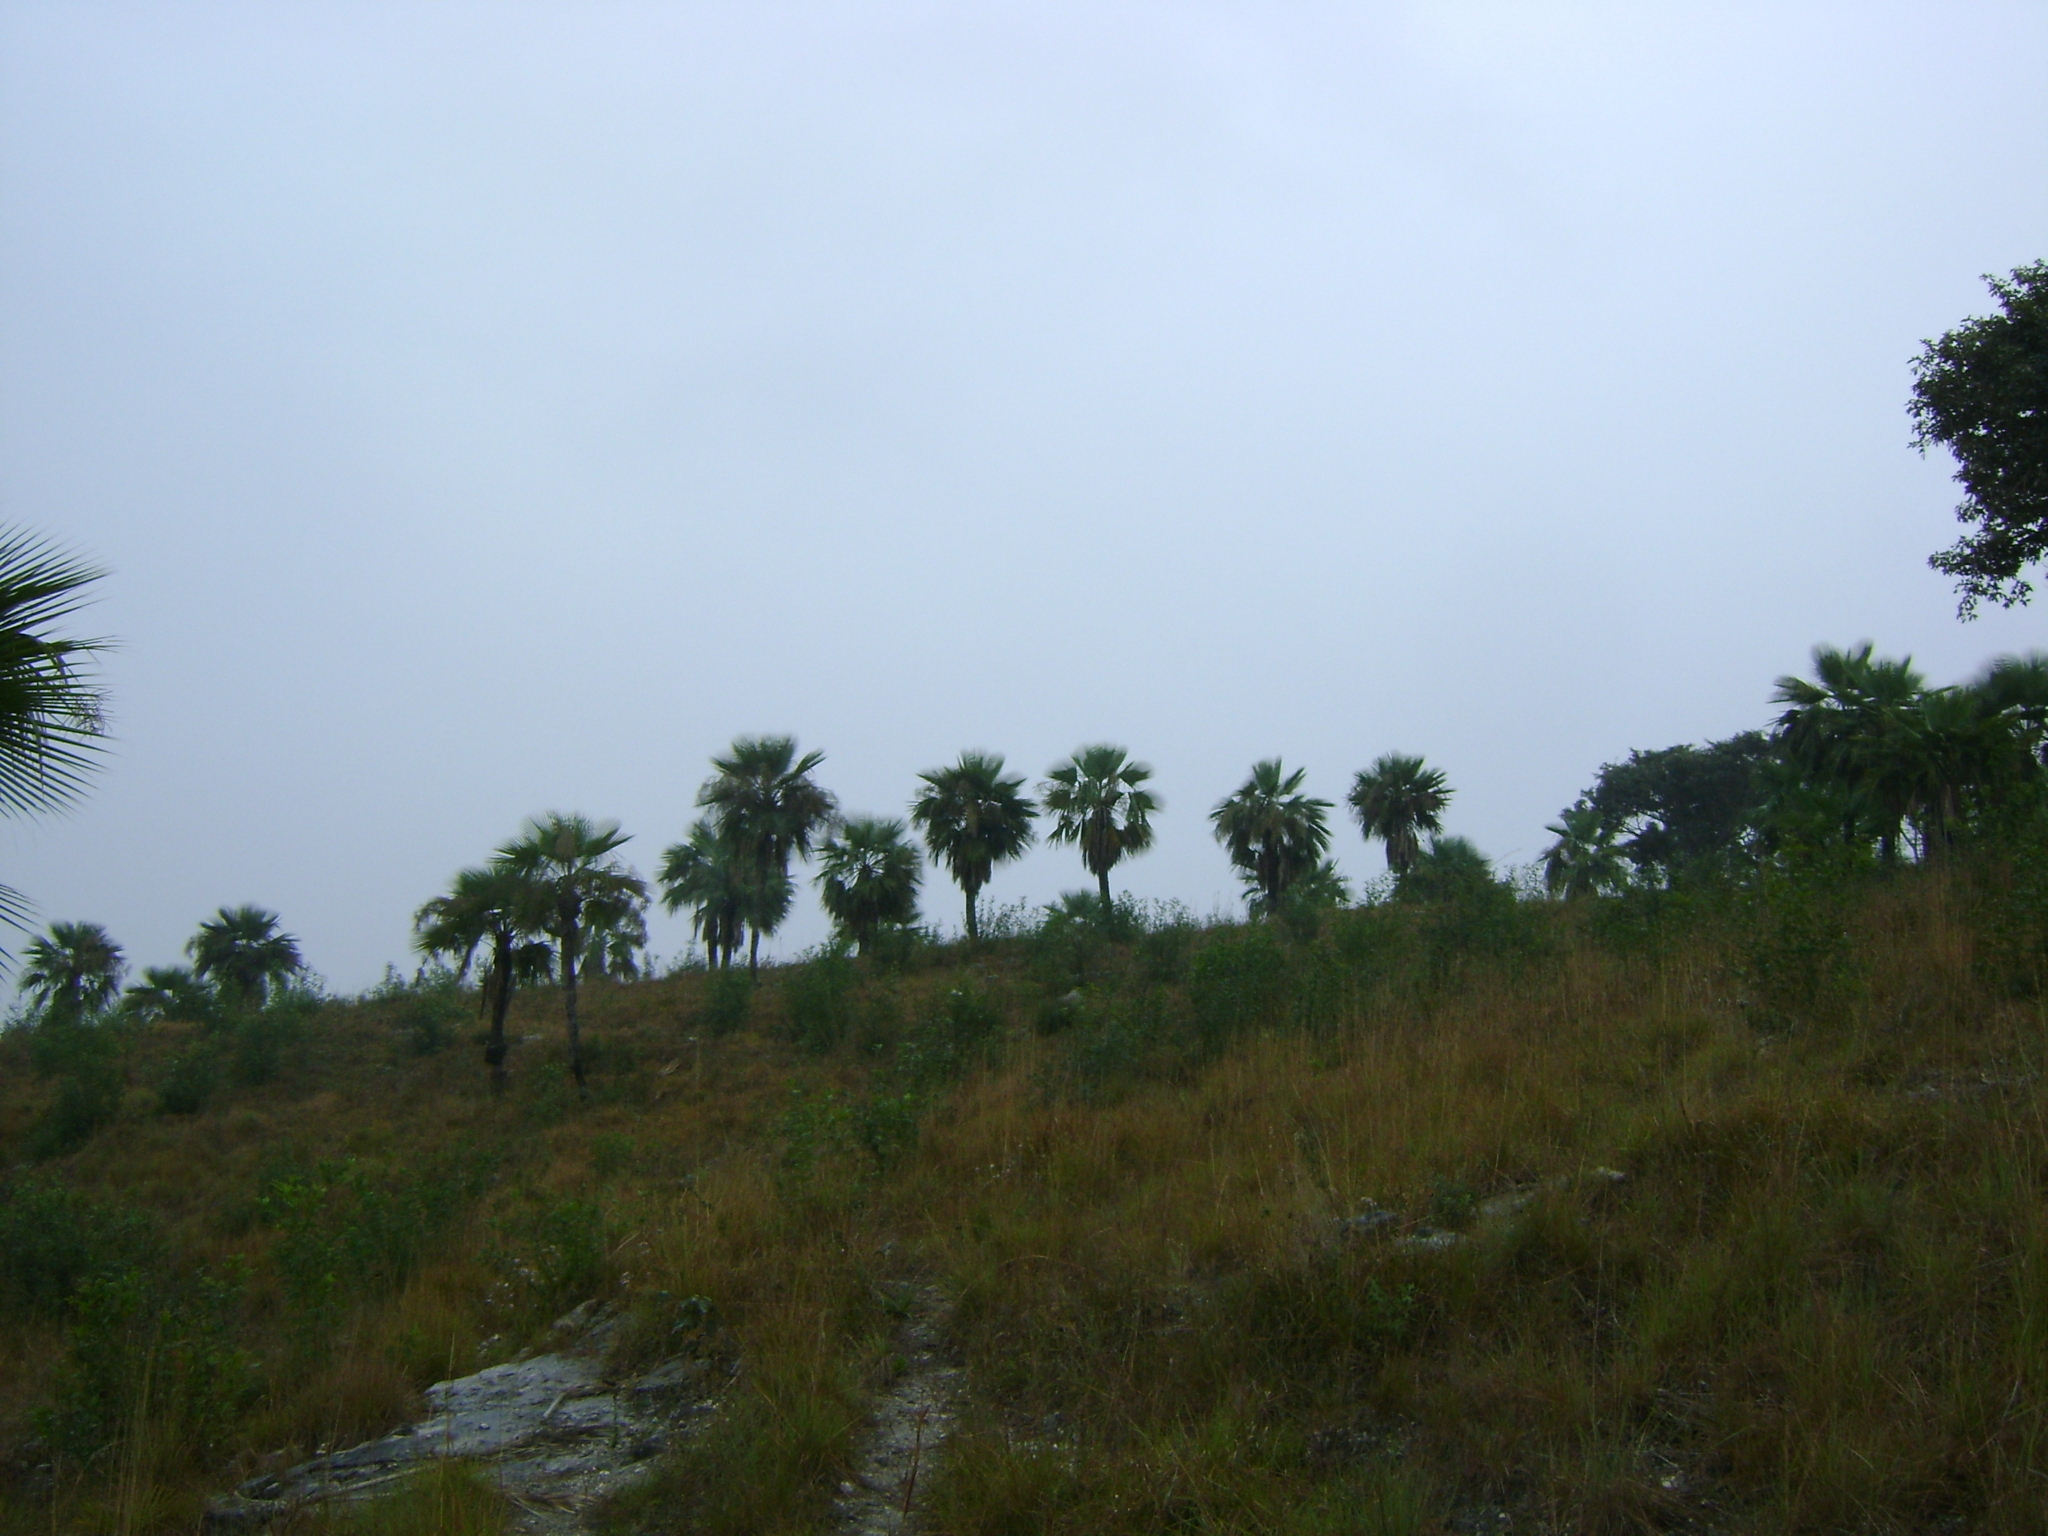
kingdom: Plantae
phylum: Tracheophyta
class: Liliopsida
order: Arecales
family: Arecaceae
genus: Brahea
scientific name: Brahea dulcis
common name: Apak palm
